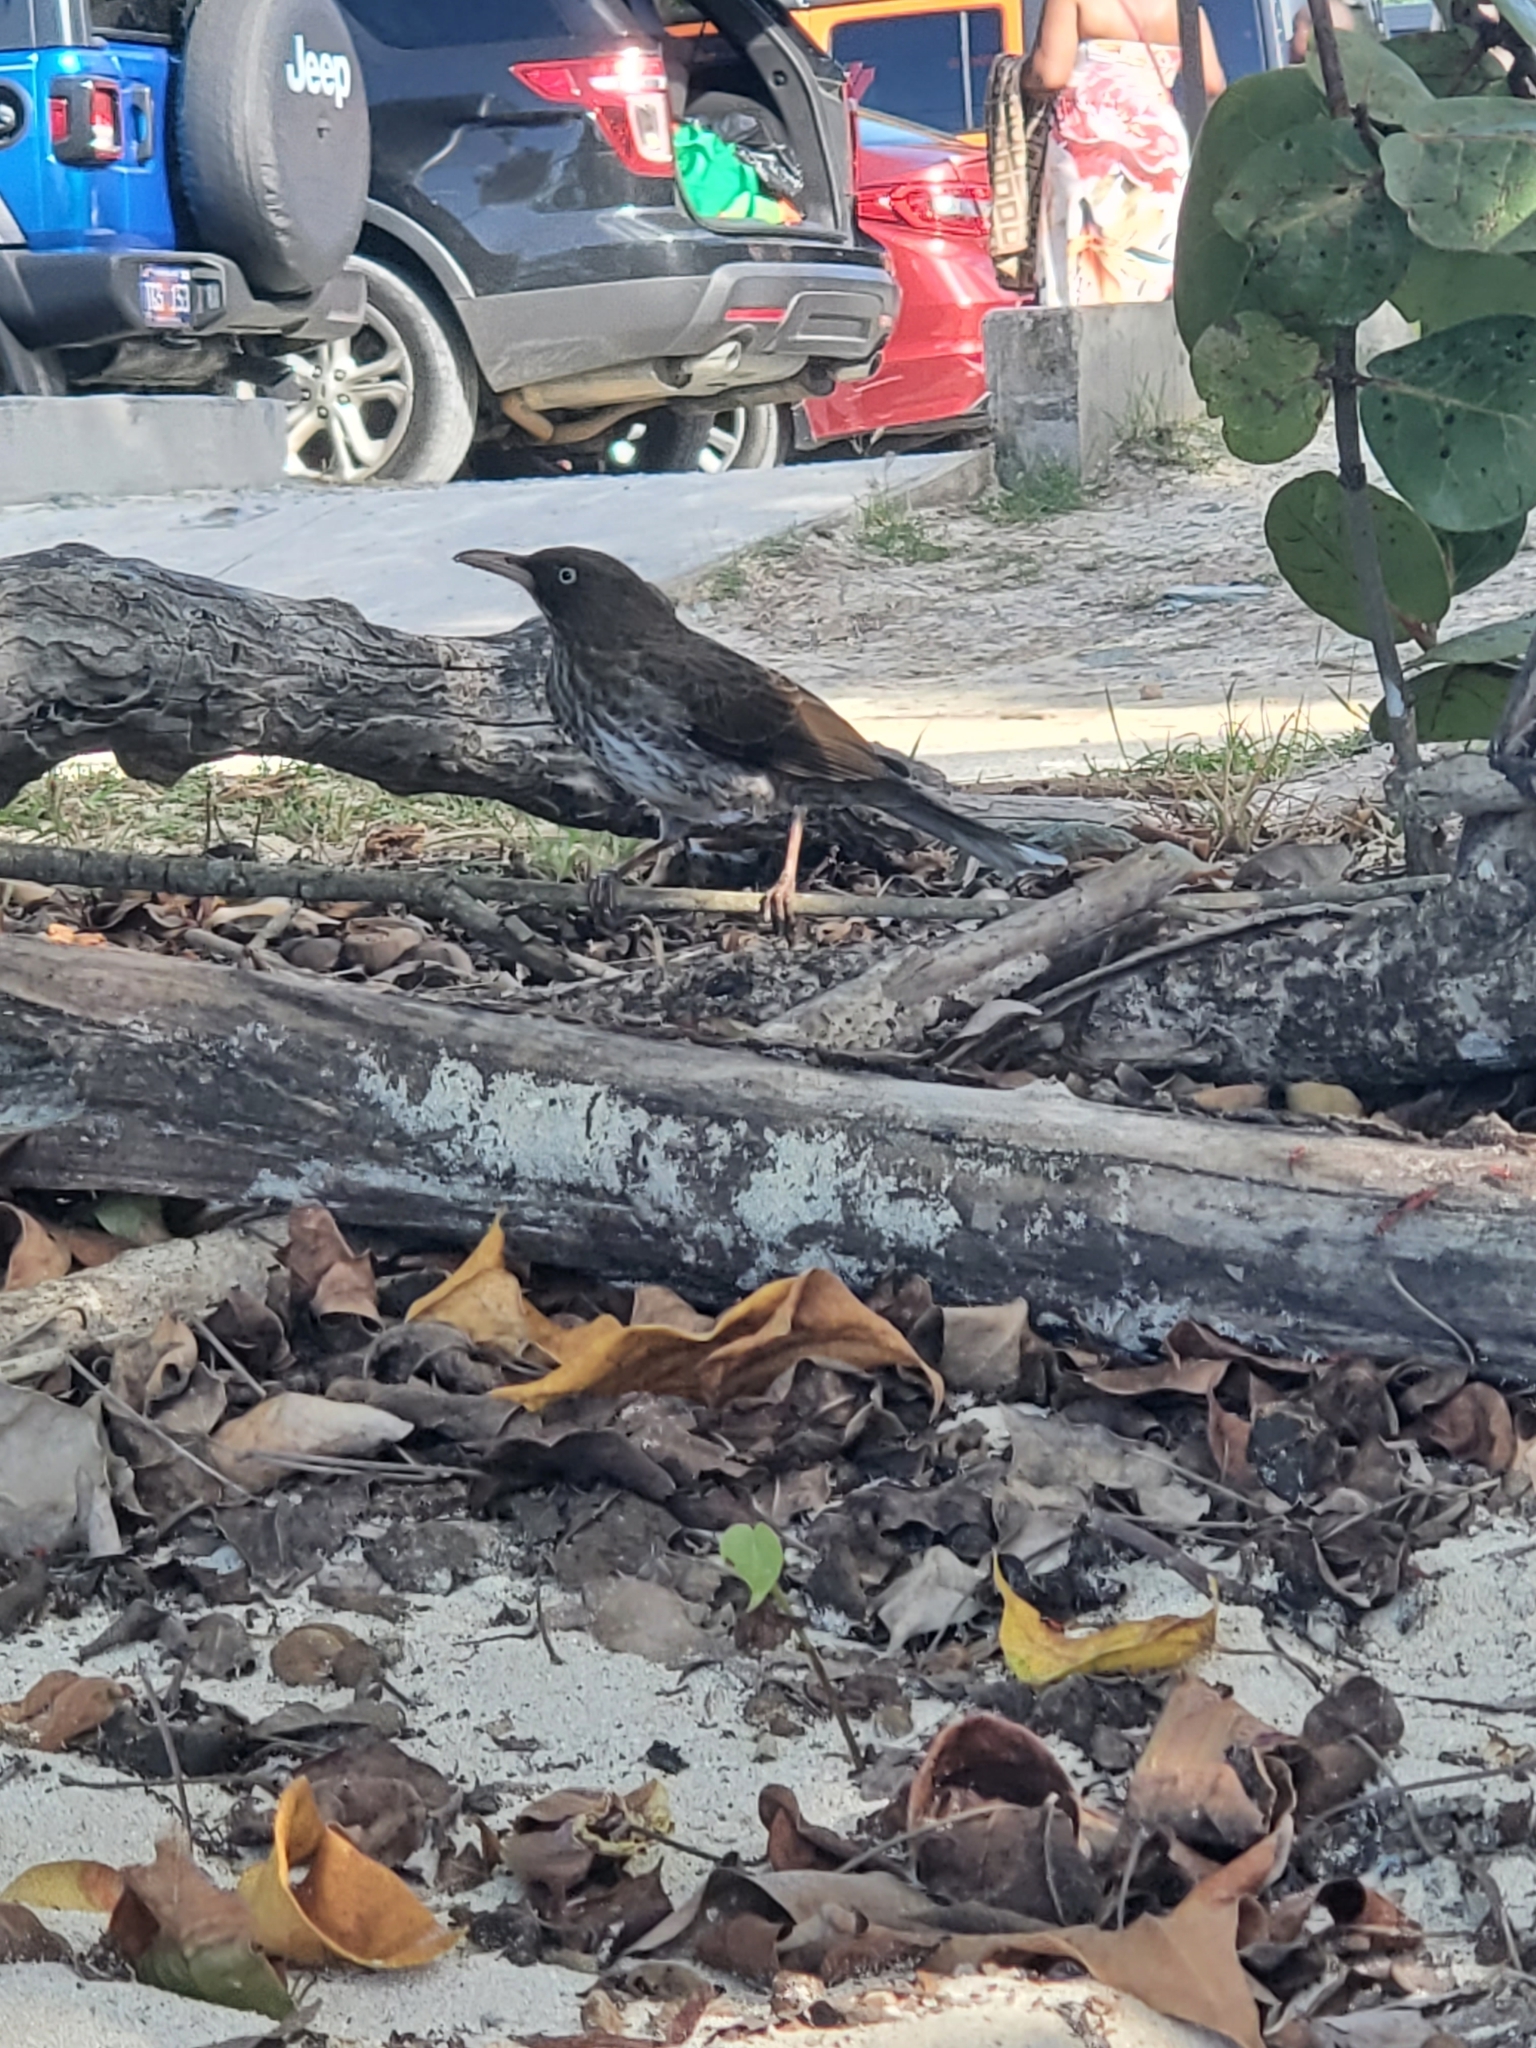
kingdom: Animalia
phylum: Chordata
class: Aves
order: Passeriformes
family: Mimidae
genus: Margarops
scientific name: Margarops fuscatus
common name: Pearly-eyed thrasher
